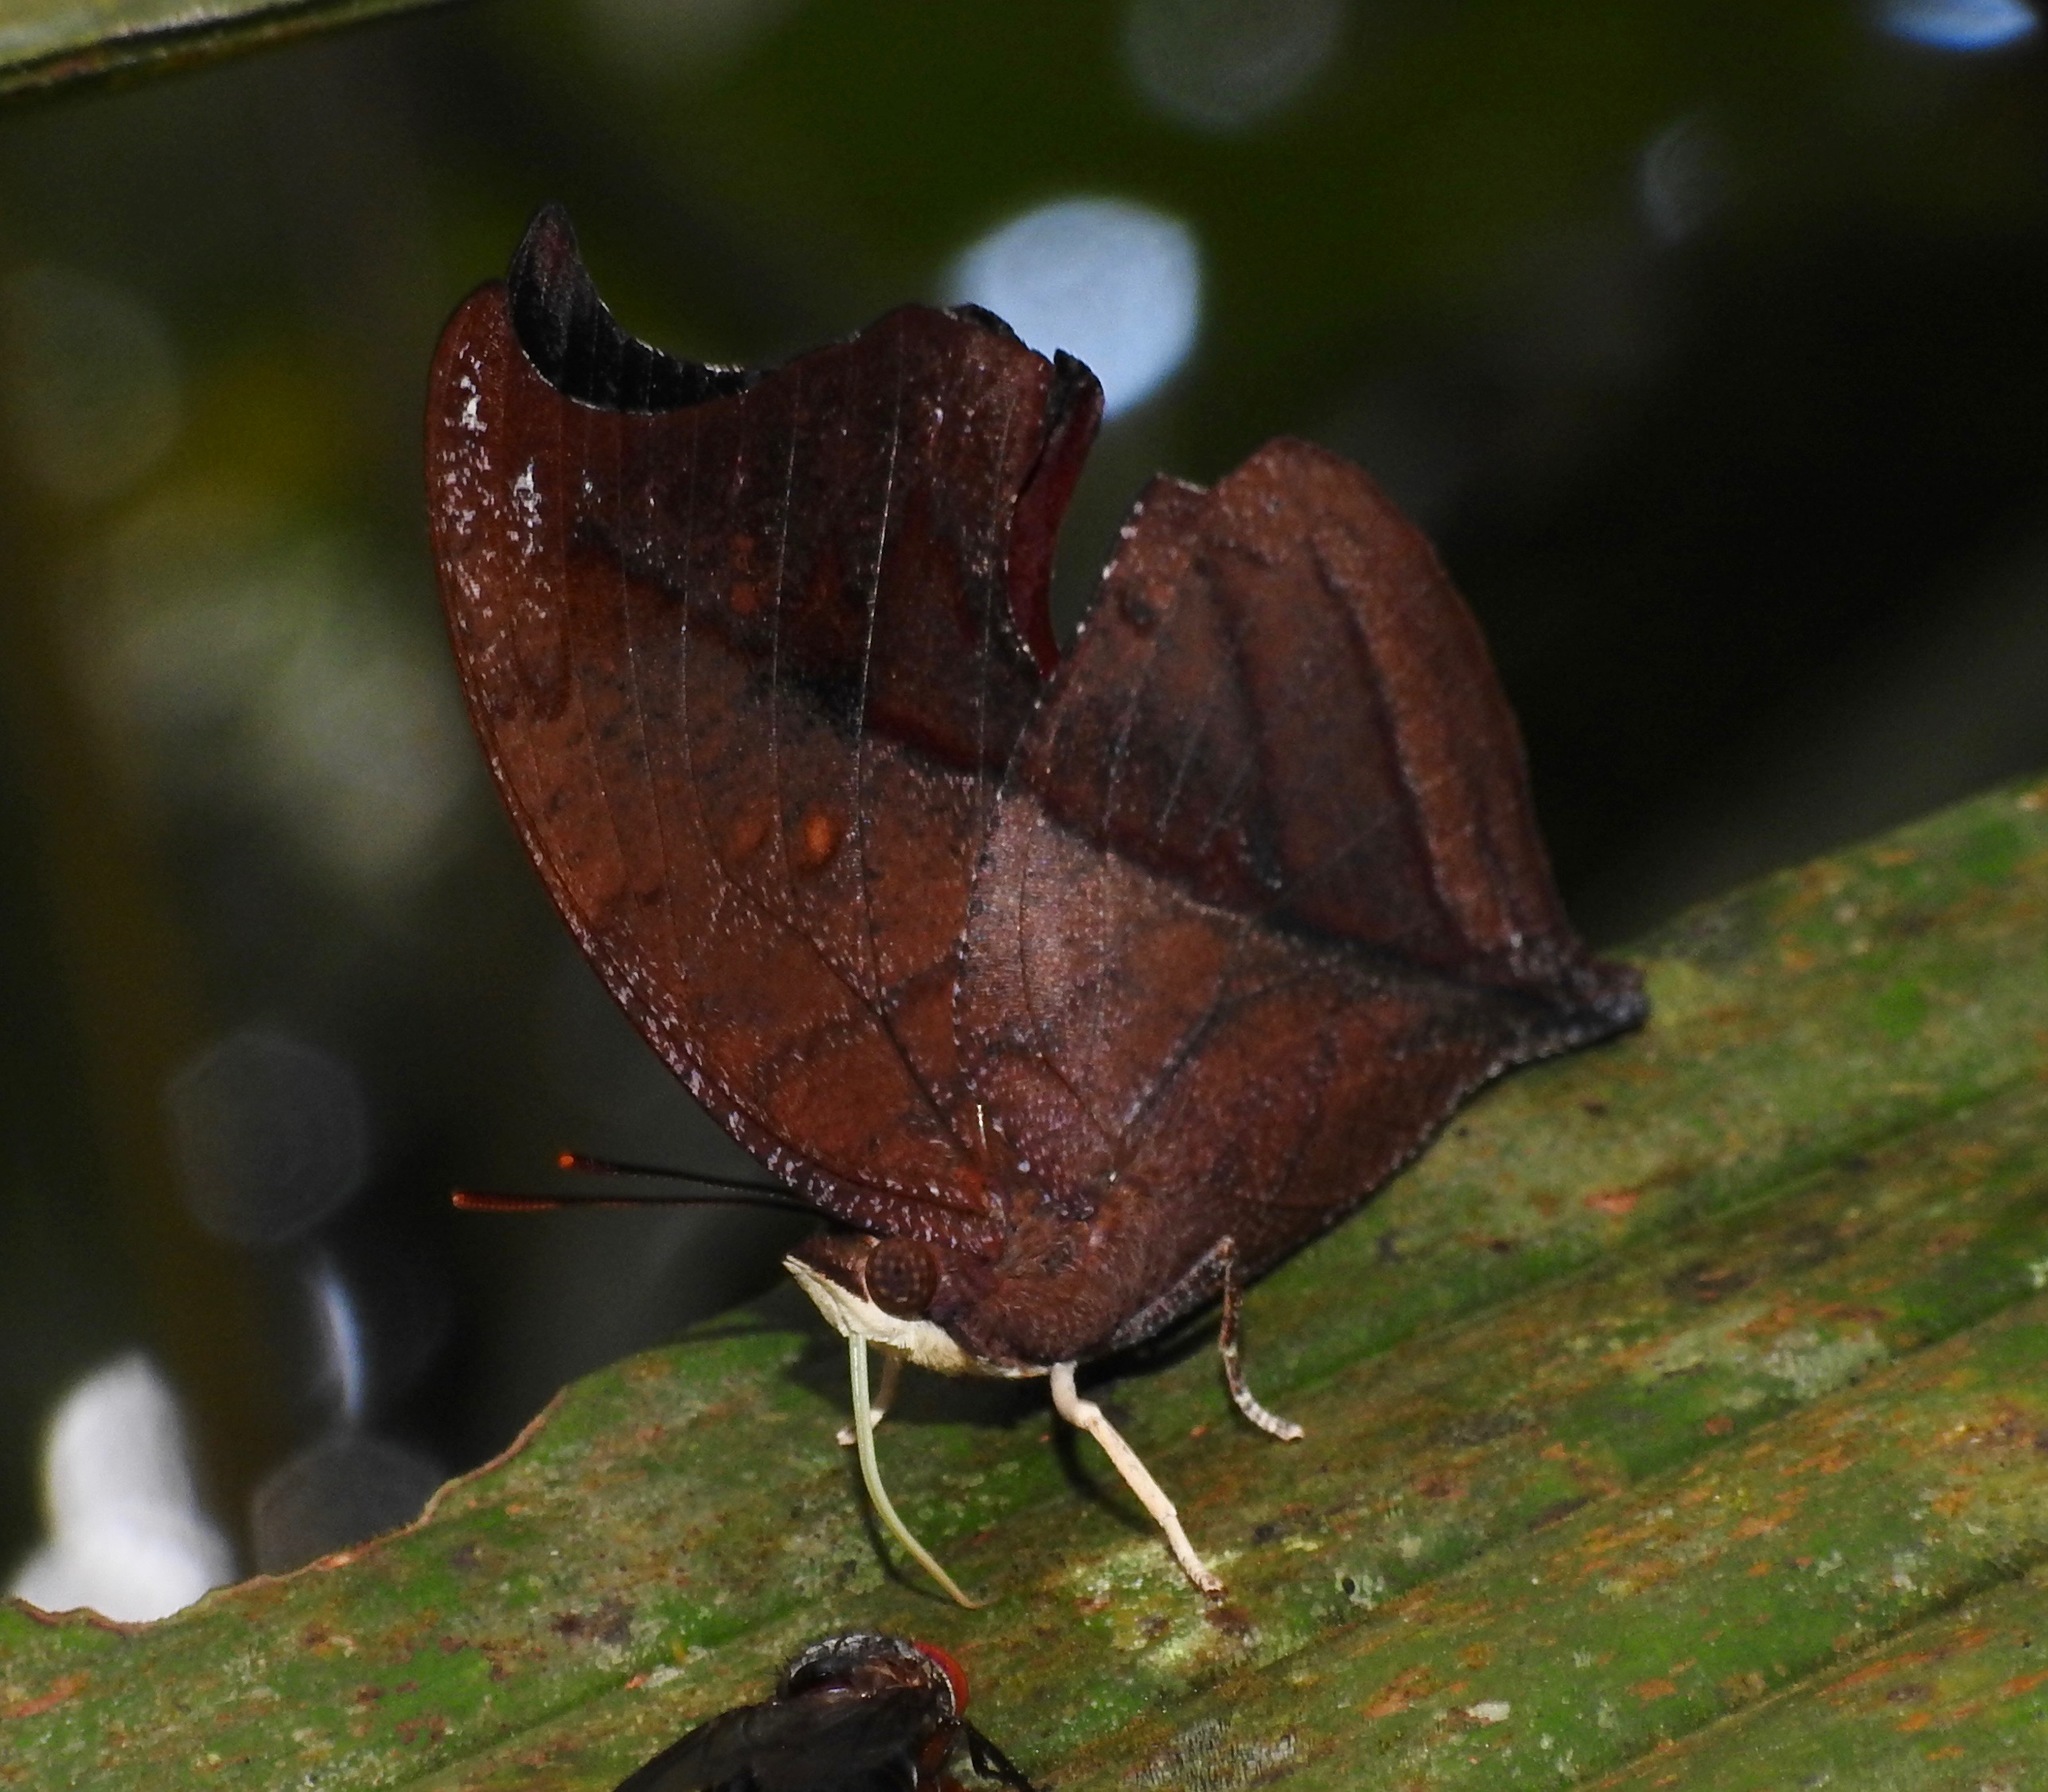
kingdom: Animalia
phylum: Arthropoda
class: Insecta
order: Lepidoptera
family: Nymphalidae
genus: Zaretis
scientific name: Zaretis pythagoras
